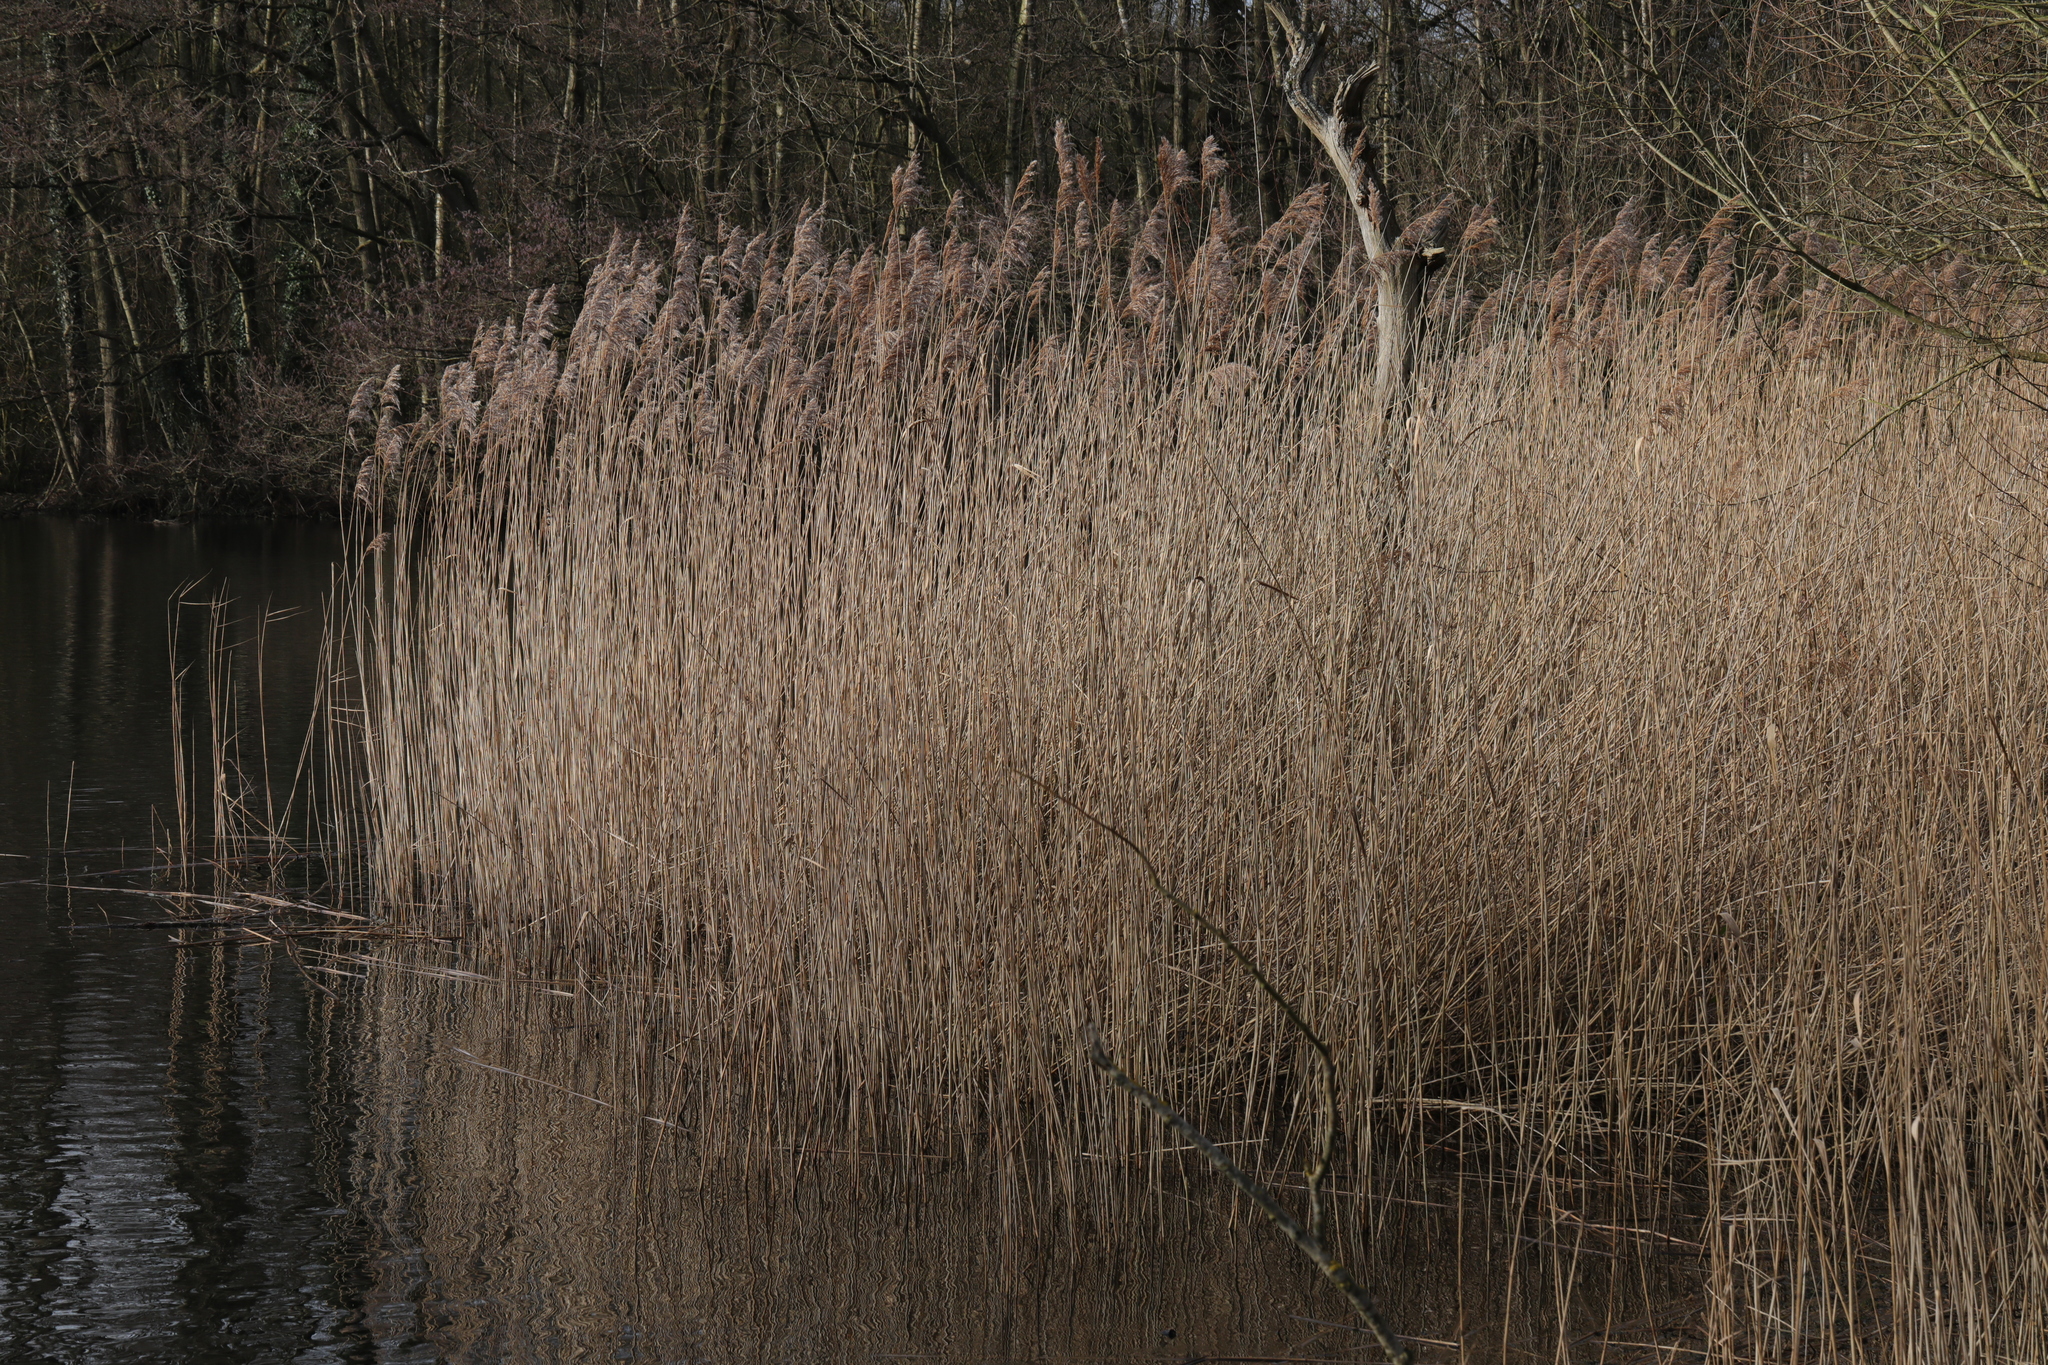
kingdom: Plantae
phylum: Tracheophyta
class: Liliopsida
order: Poales
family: Poaceae
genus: Phragmites
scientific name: Phragmites australis
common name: Common reed
